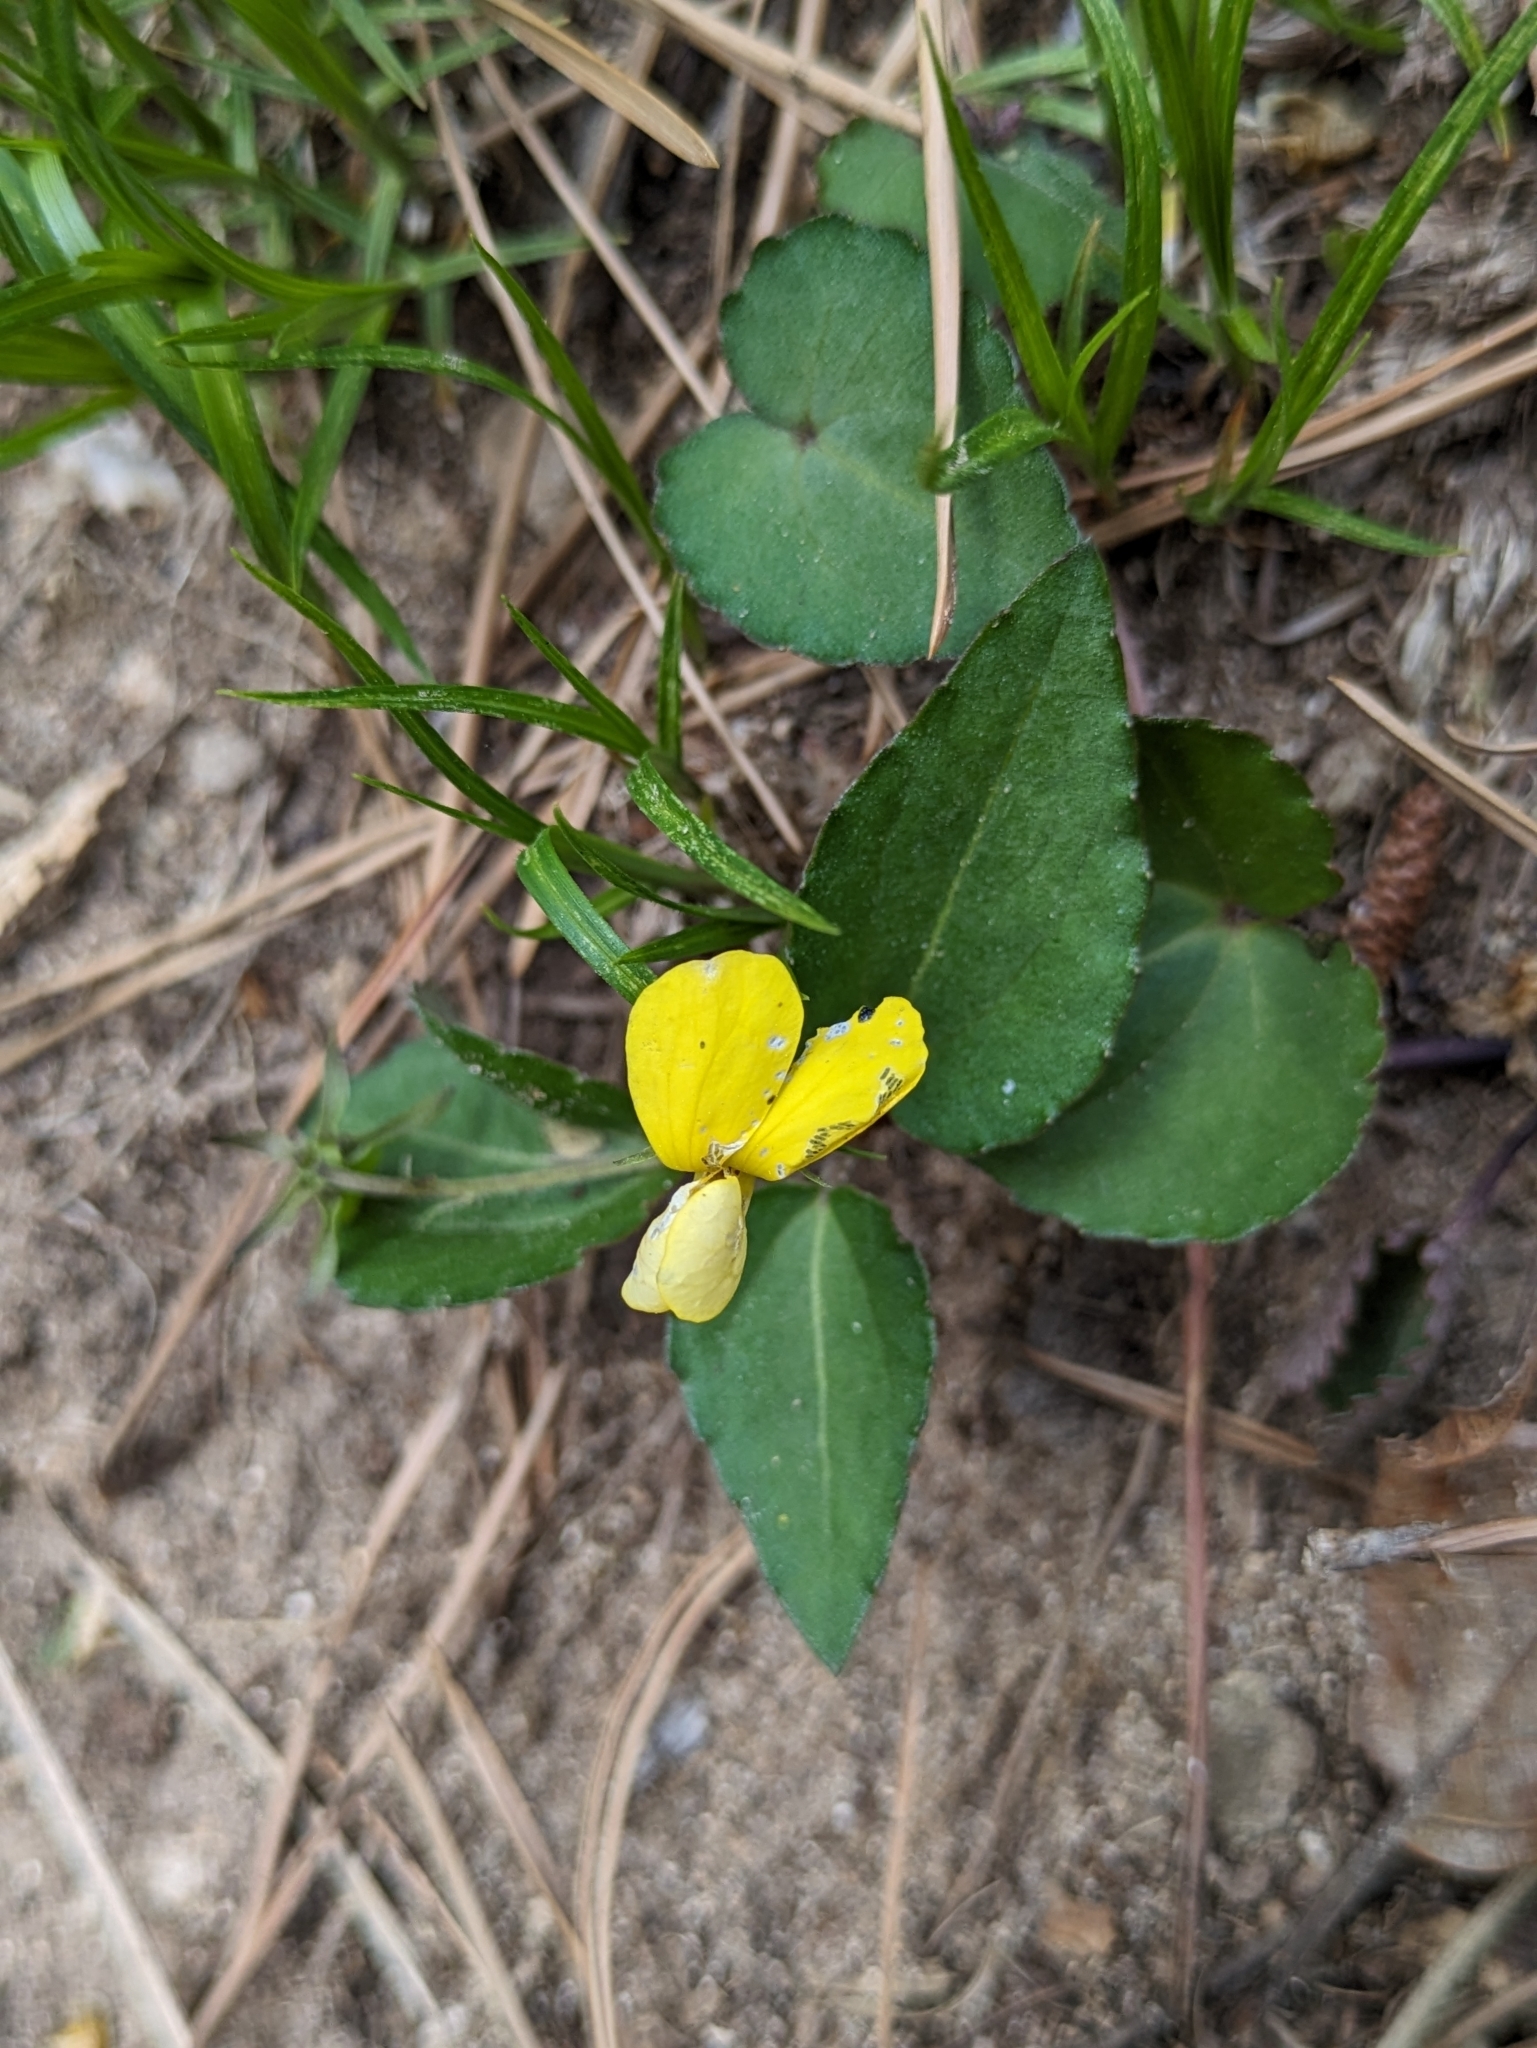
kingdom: Plantae
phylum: Tracheophyta
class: Magnoliopsida
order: Malpighiales
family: Violaceae
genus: Viola
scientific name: Viola orientalis
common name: Golden violet
